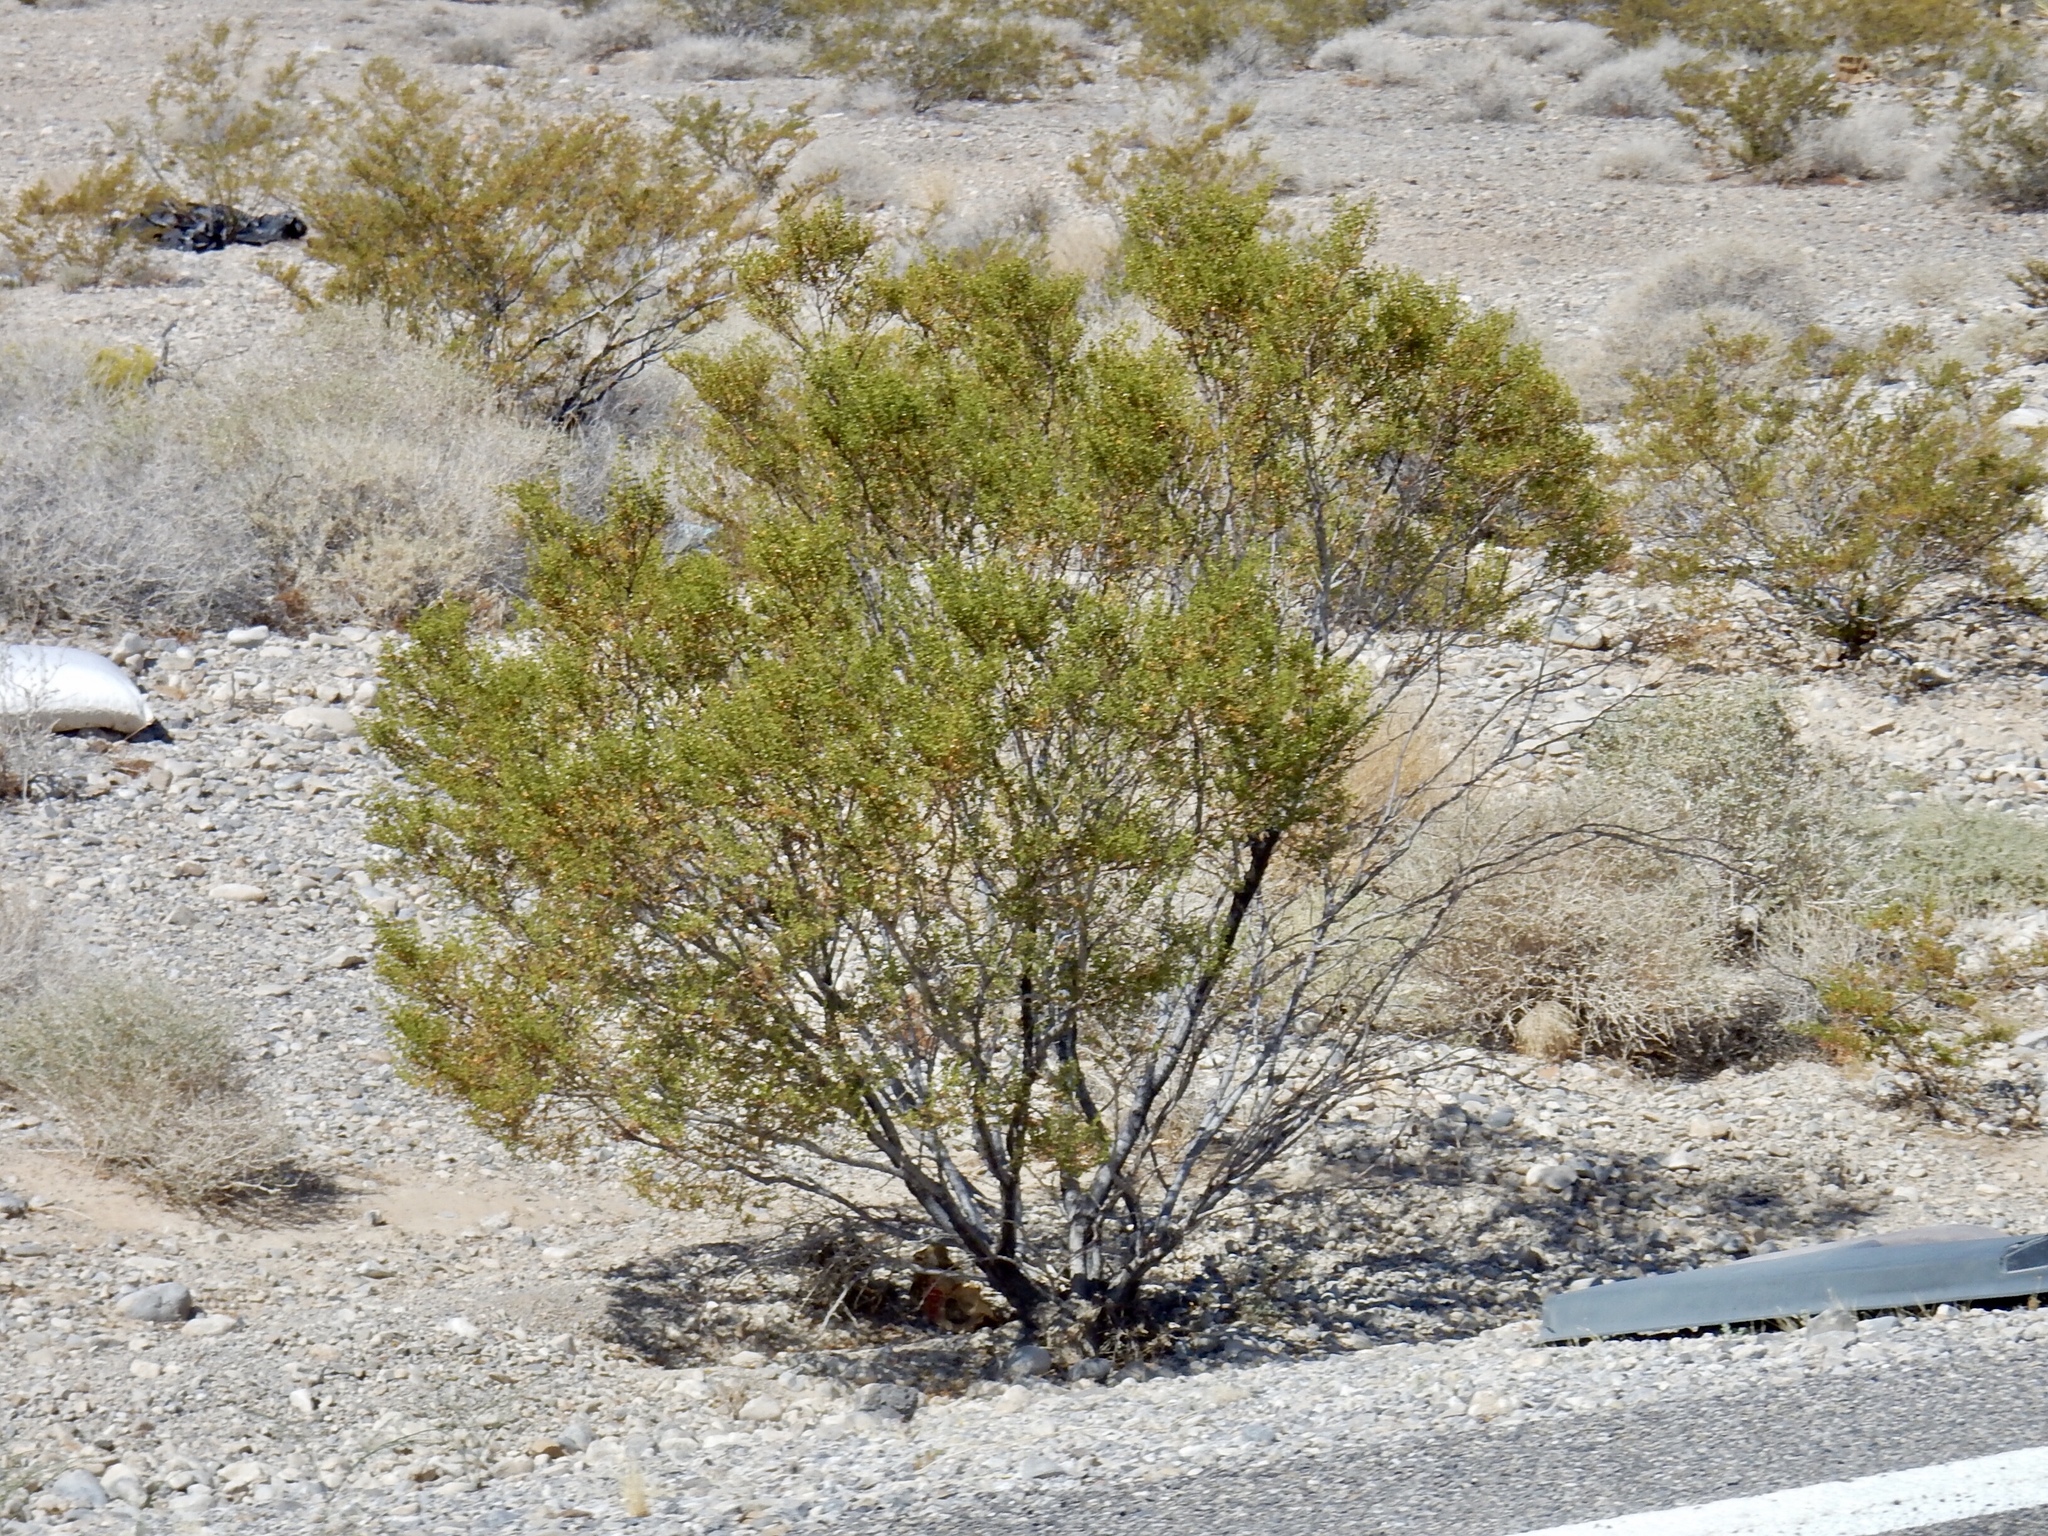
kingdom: Plantae
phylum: Tracheophyta
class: Magnoliopsida
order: Zygophyllales
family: Zygophyllaceae
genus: Larrea
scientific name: Larrea tridentata
